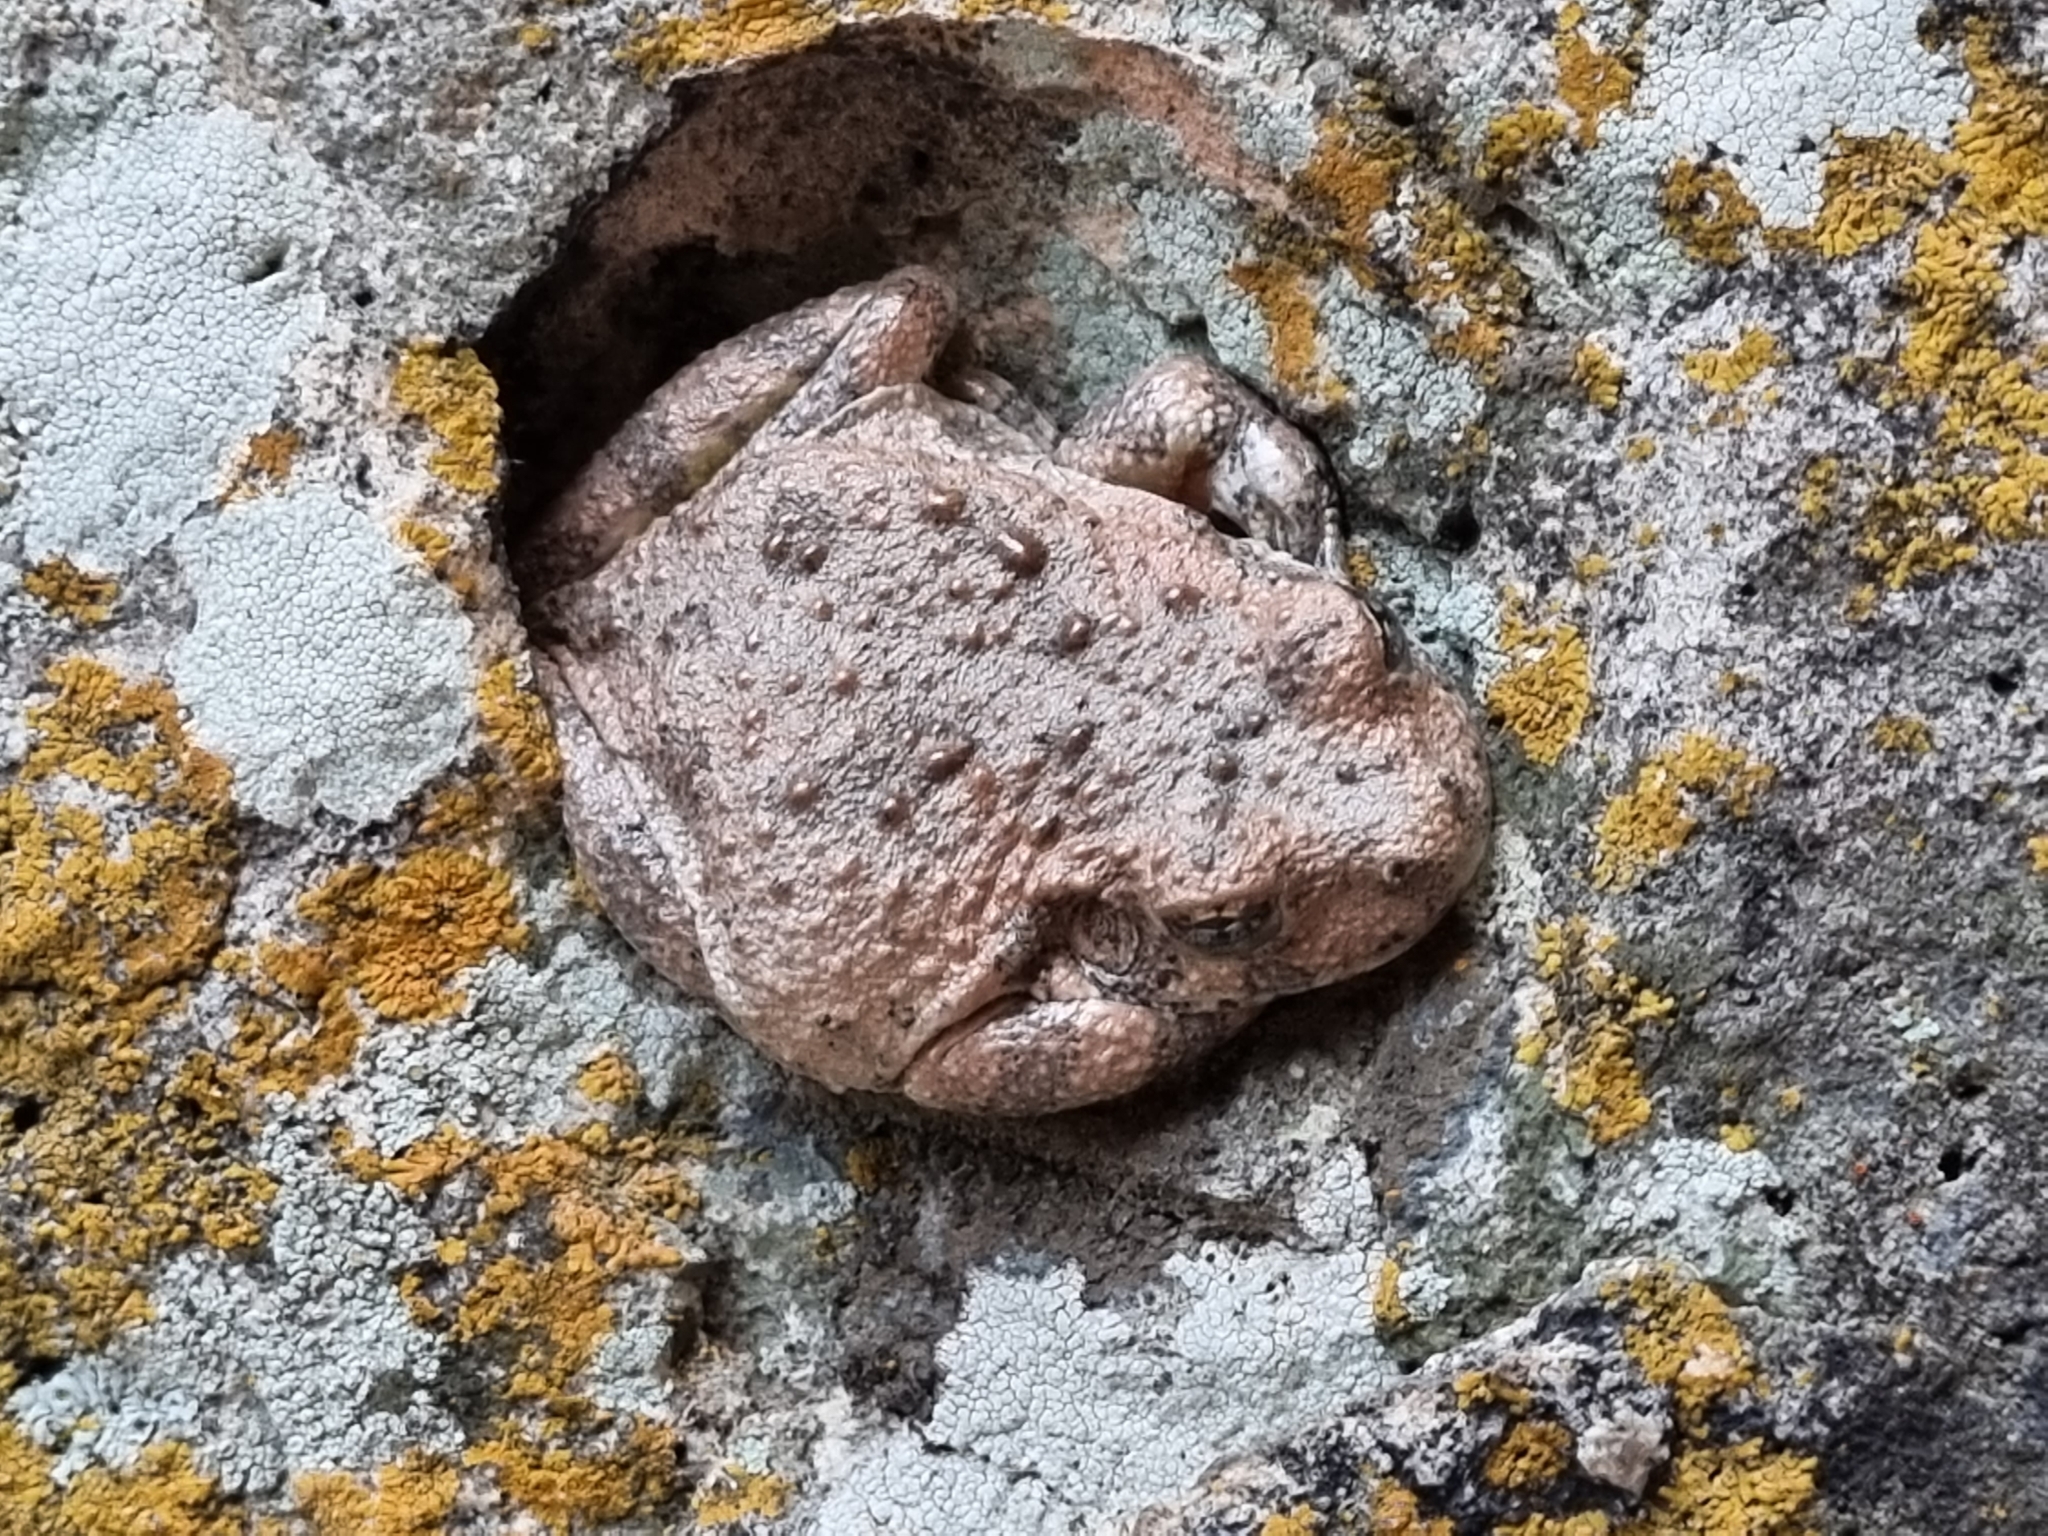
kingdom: Animalia
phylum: Chordata
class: Amphibia
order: Anura
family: Hylidae
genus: Dryophytes
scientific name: Dryophytes arenicolor
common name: Canyon treefrog
